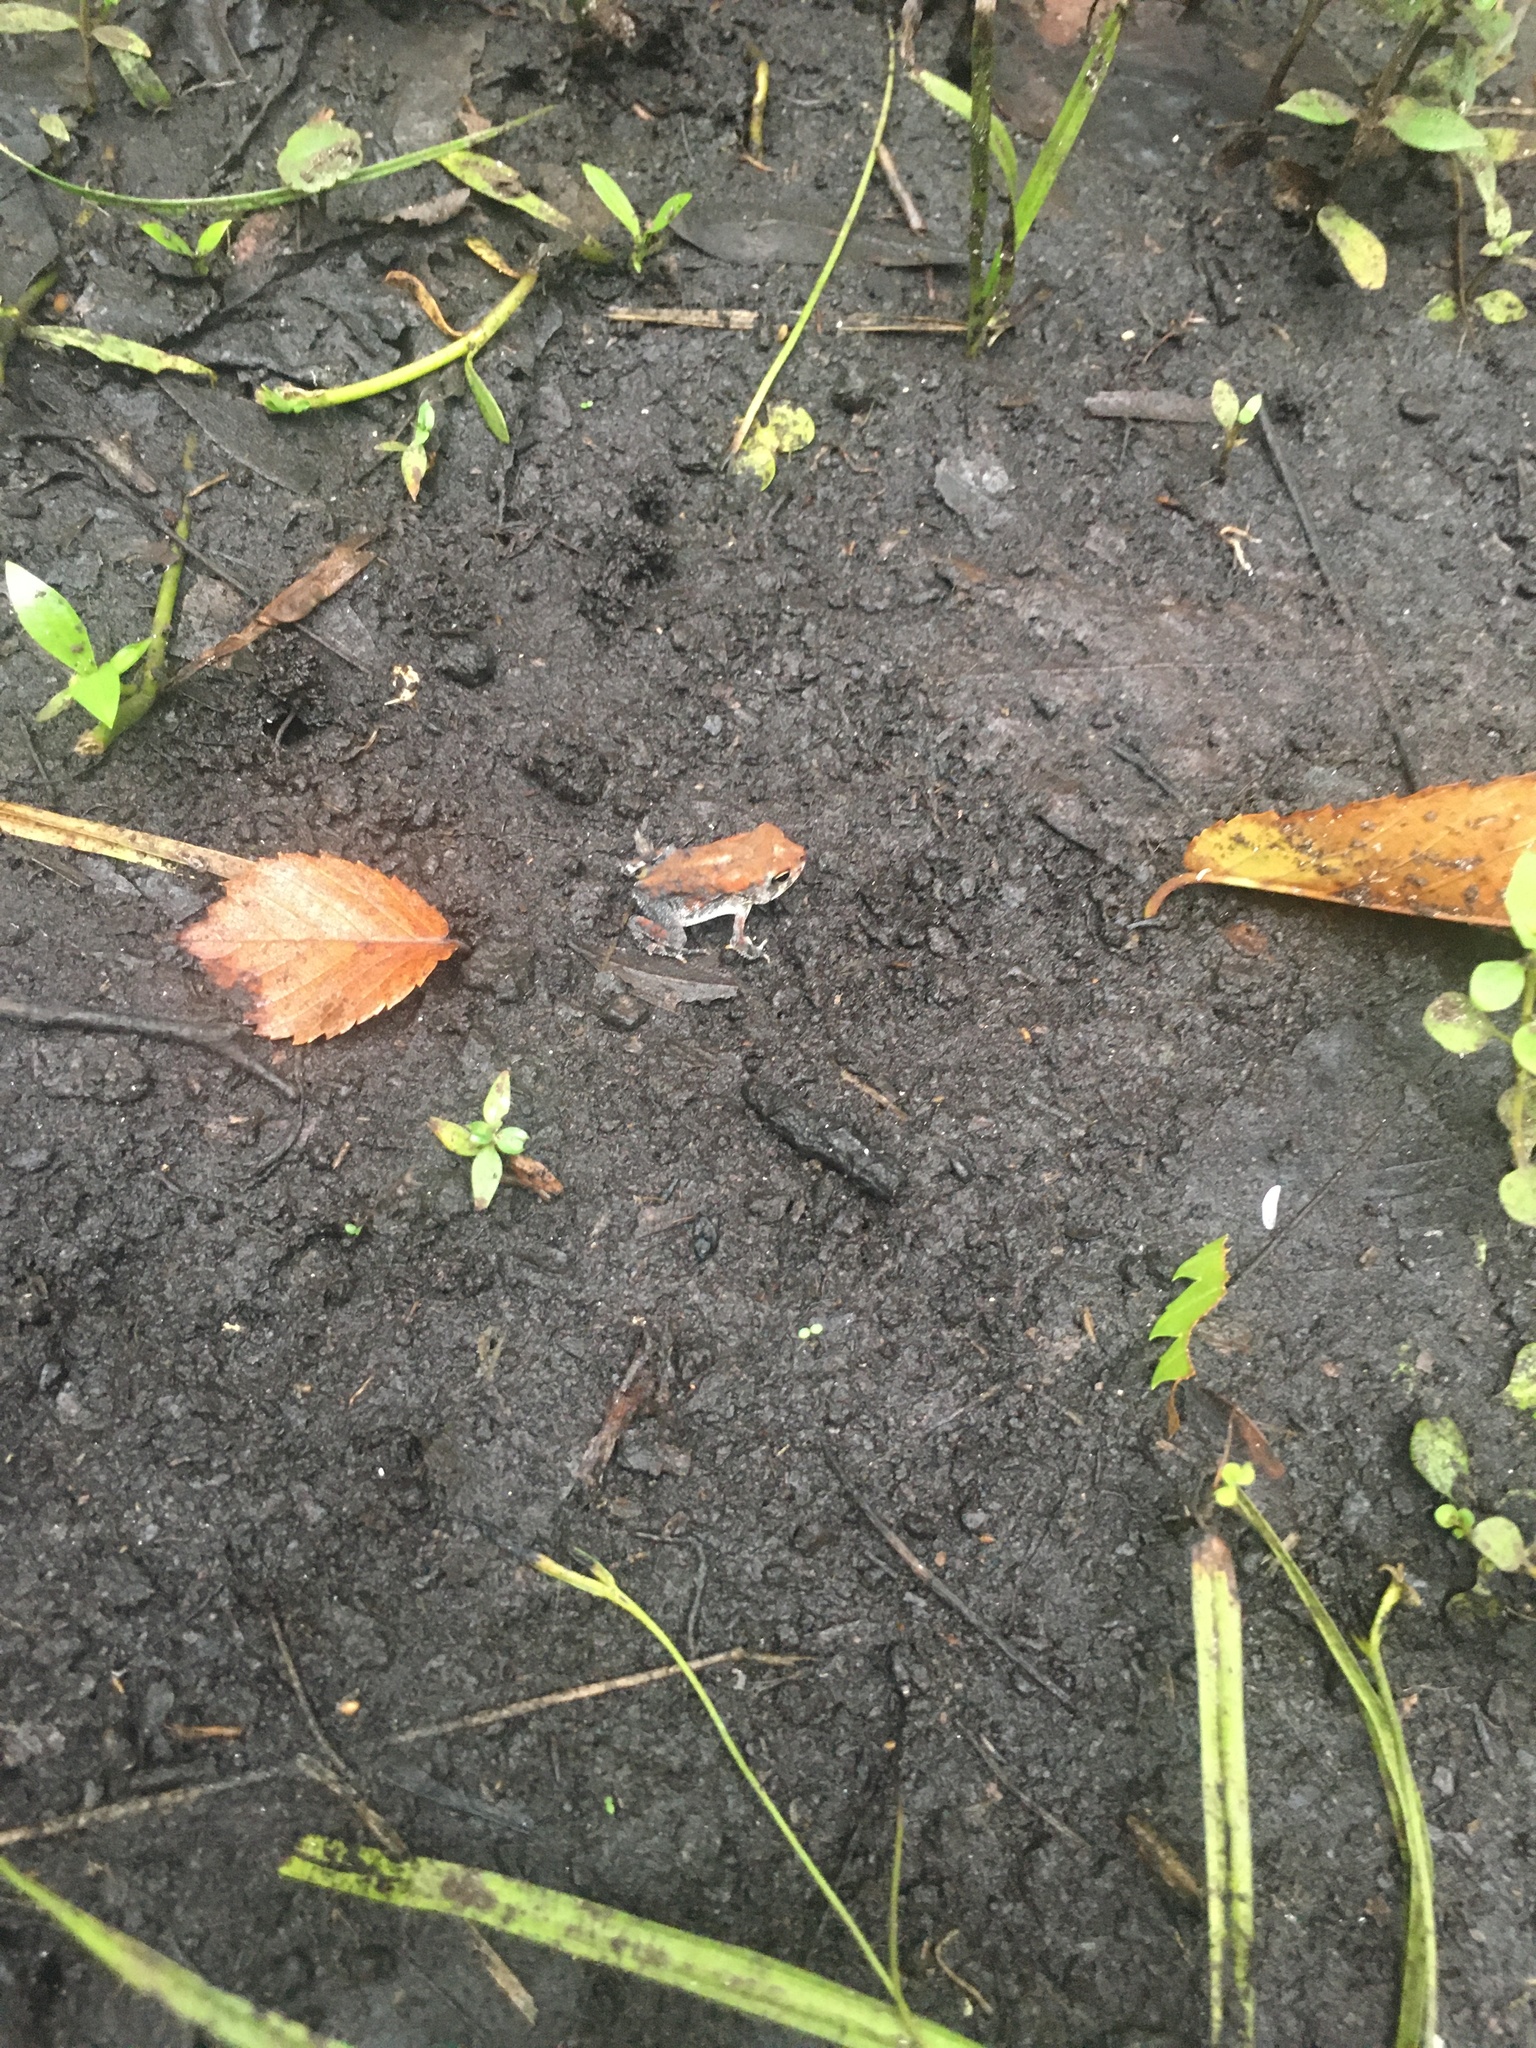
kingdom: Animalia
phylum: Chordata
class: Amphibia
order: Anura
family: Bufonidae
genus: Anaxyrus
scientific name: Anaxyrus terrestris
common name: Southern toad
